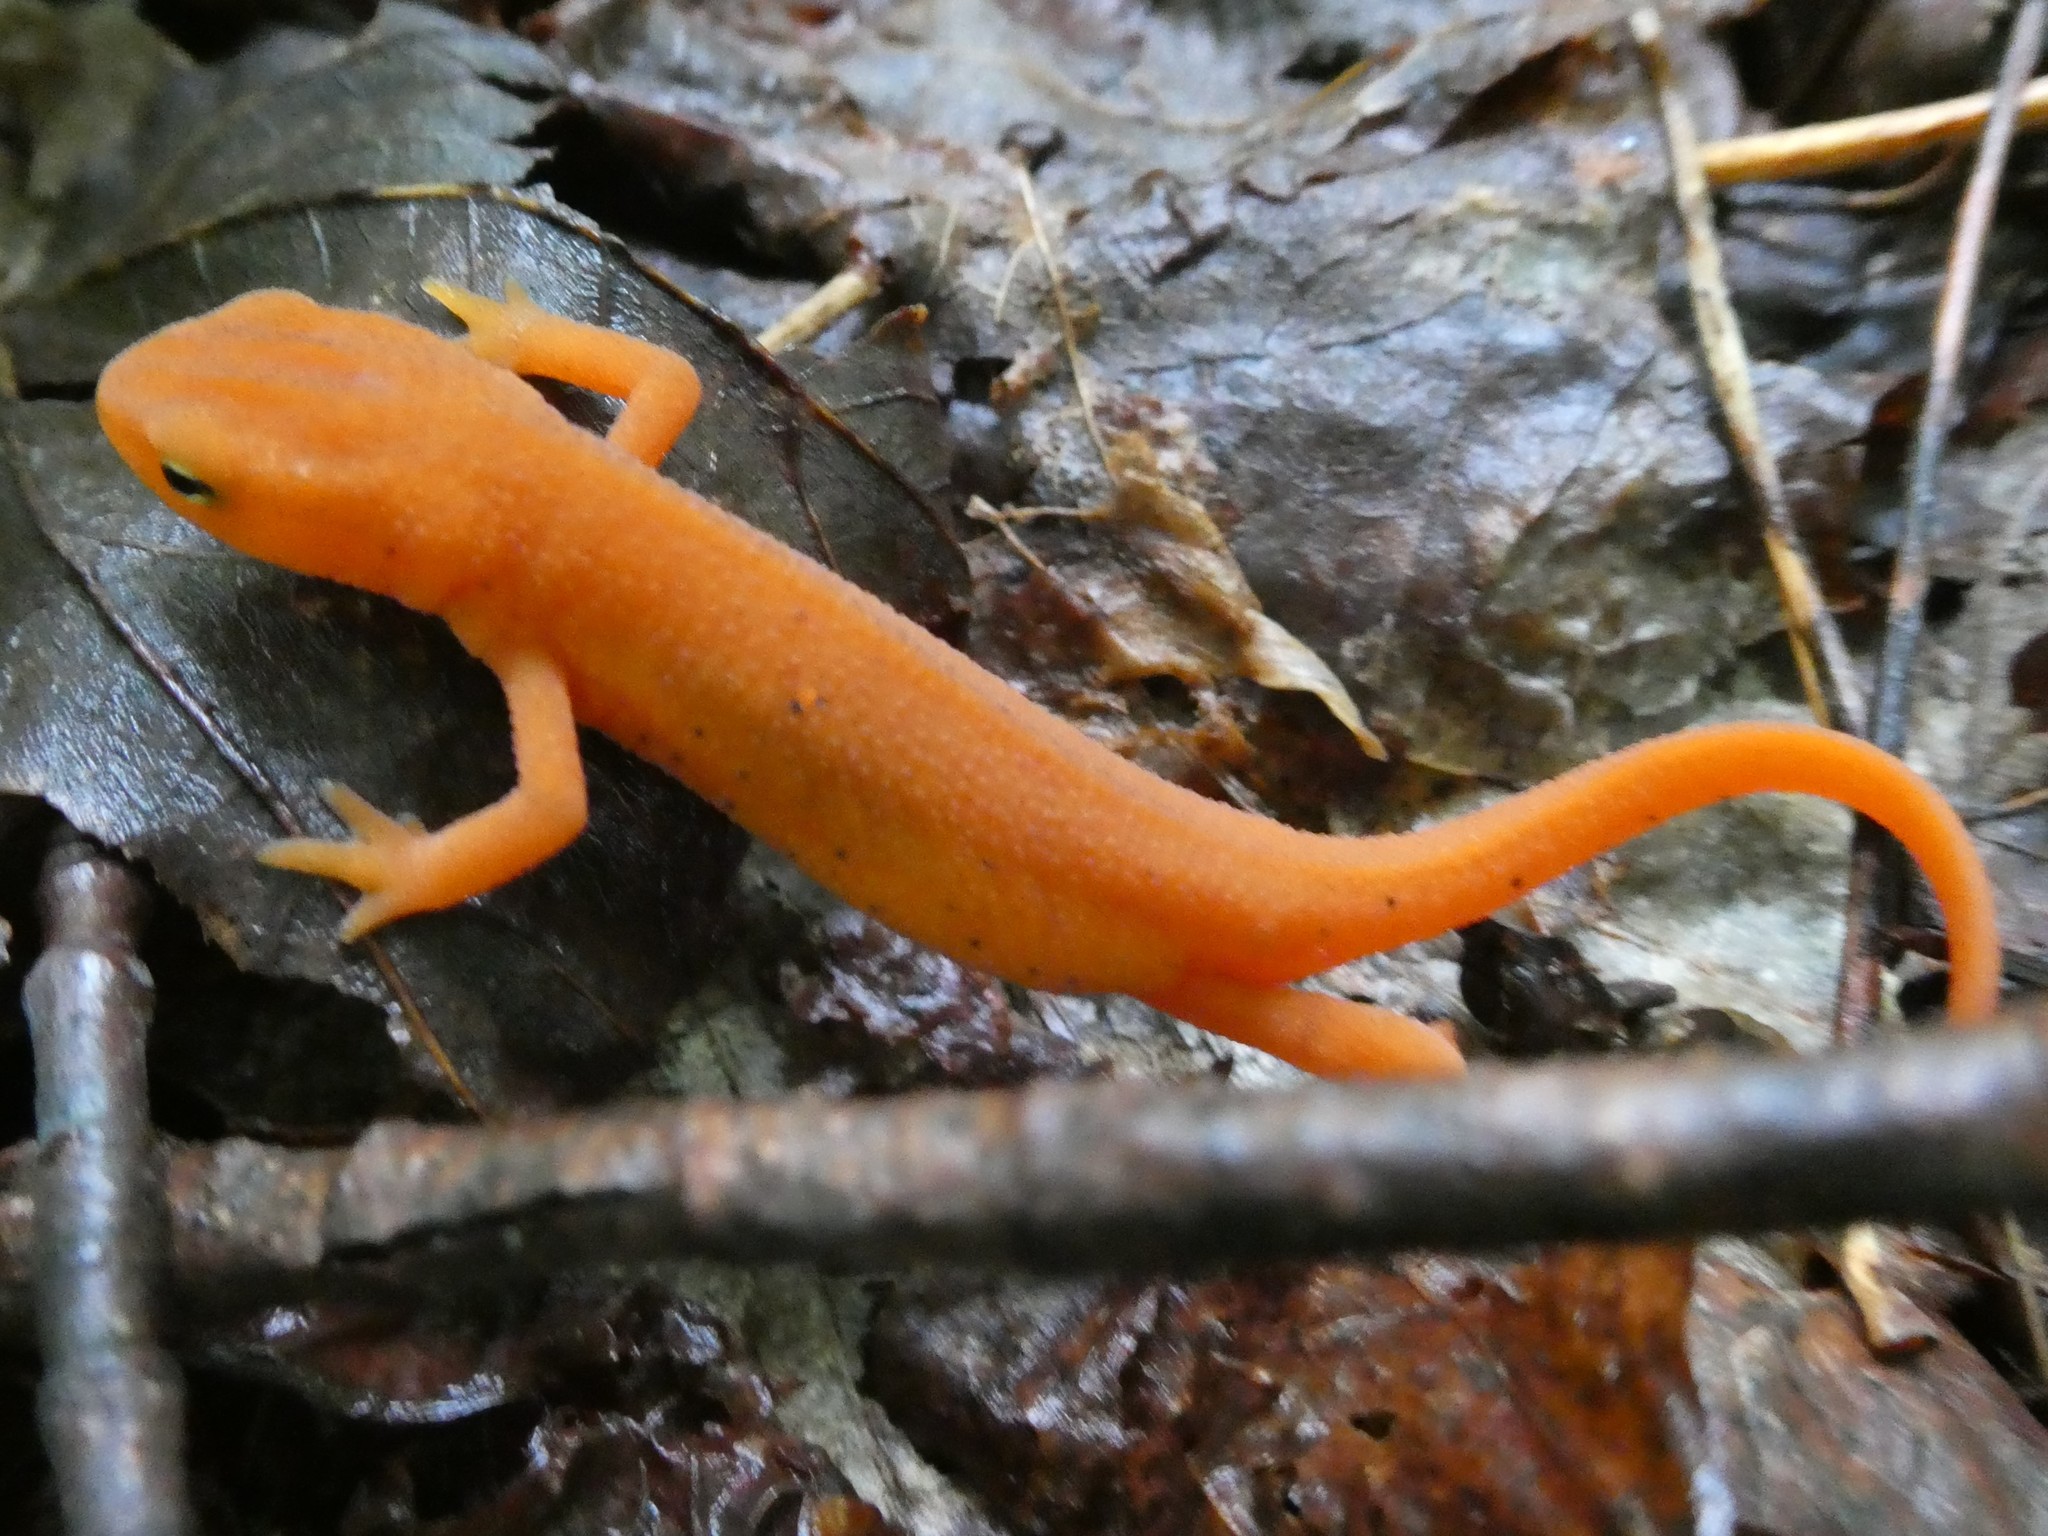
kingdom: Animalia
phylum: Chordata
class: Amphibia
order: Caudata
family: Salamandridae
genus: Notophthalmus
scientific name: Notophthalmus viridescens
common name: Eastern newt
